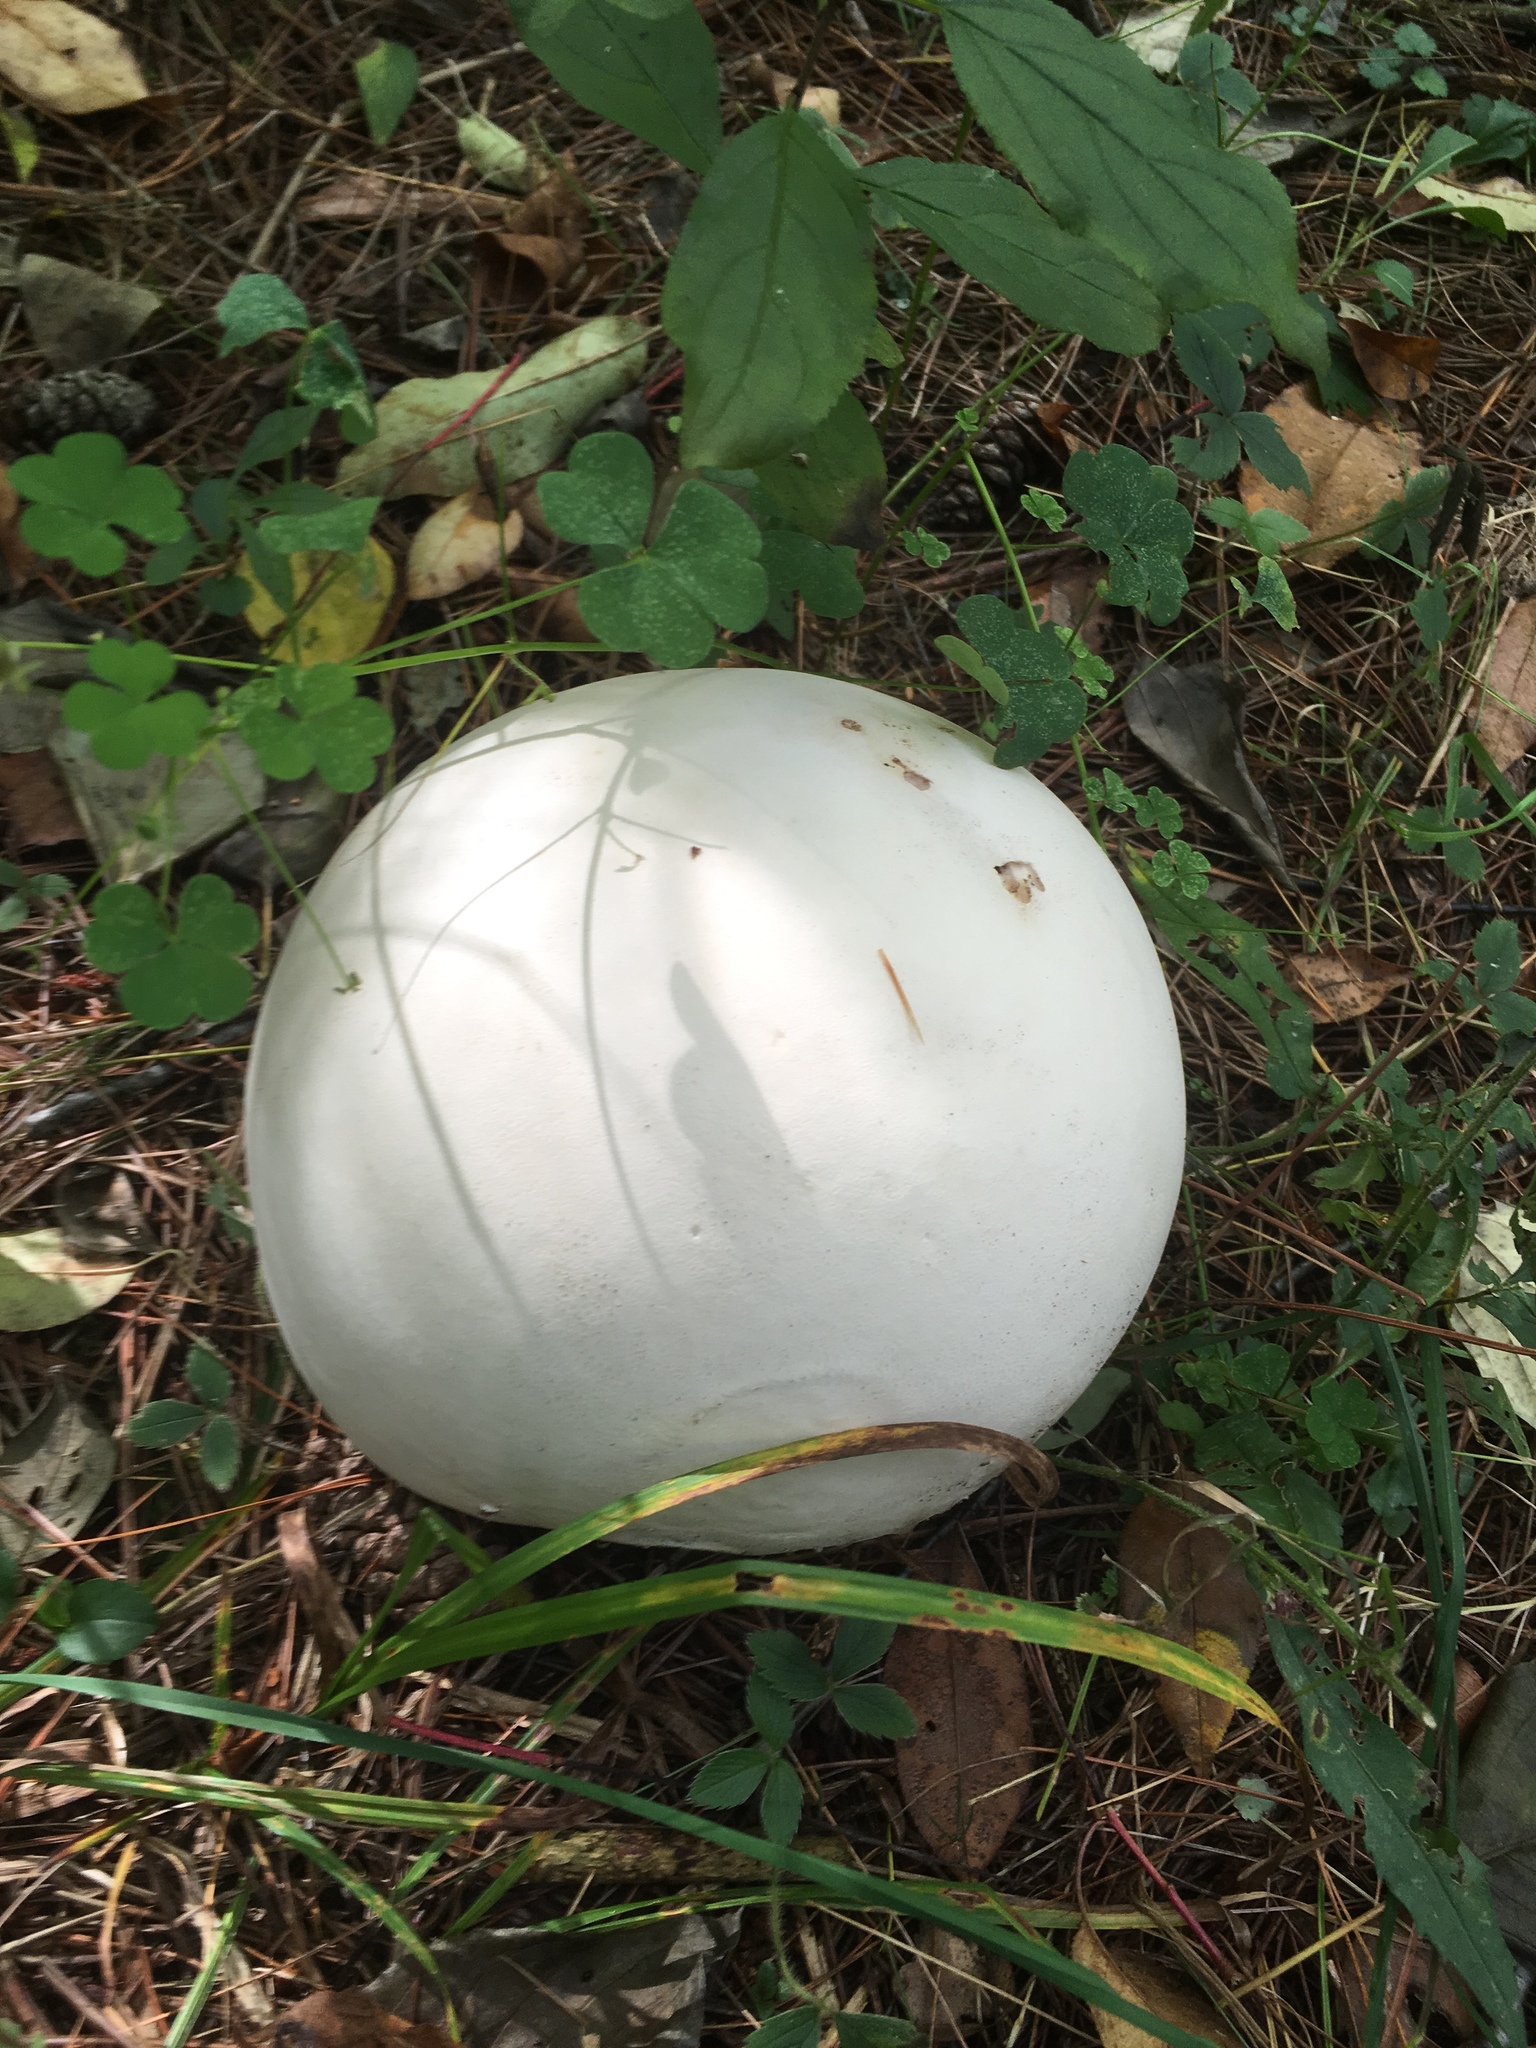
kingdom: Fungi
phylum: Basidiomycota
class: Agaricomycetes
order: Agaricales
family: Lycoperdaceae
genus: Calvatia
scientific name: Calvatia gigantea
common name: Giant puffball
